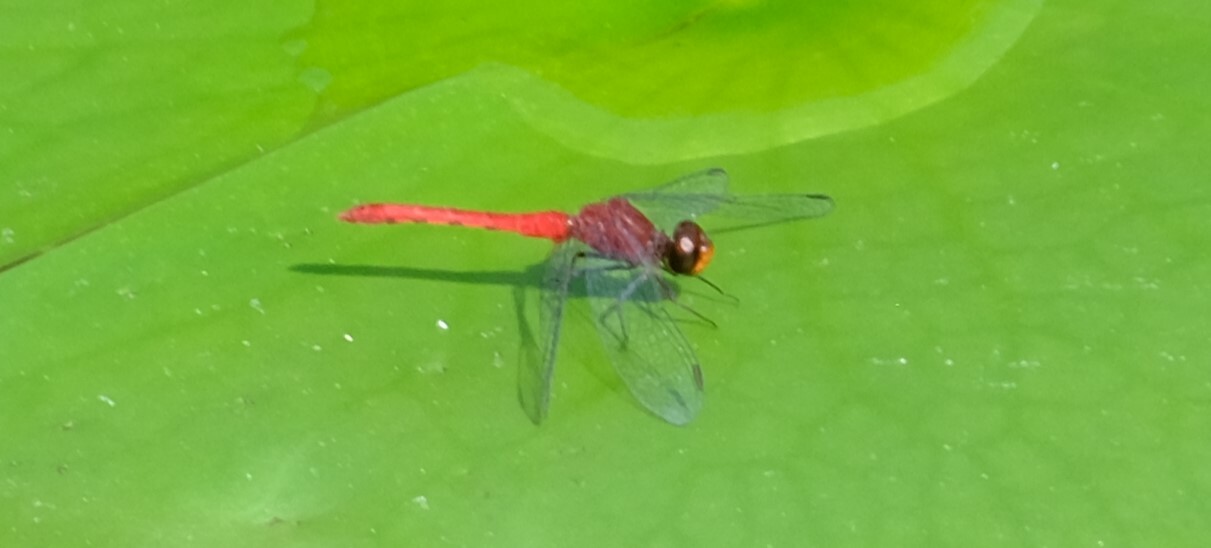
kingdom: Animalia
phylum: Arthropoda
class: Insecta
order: Odonata
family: Libellulidae
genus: Nannodiplax
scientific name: Nannodiplax rubra
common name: Pygmy percher
